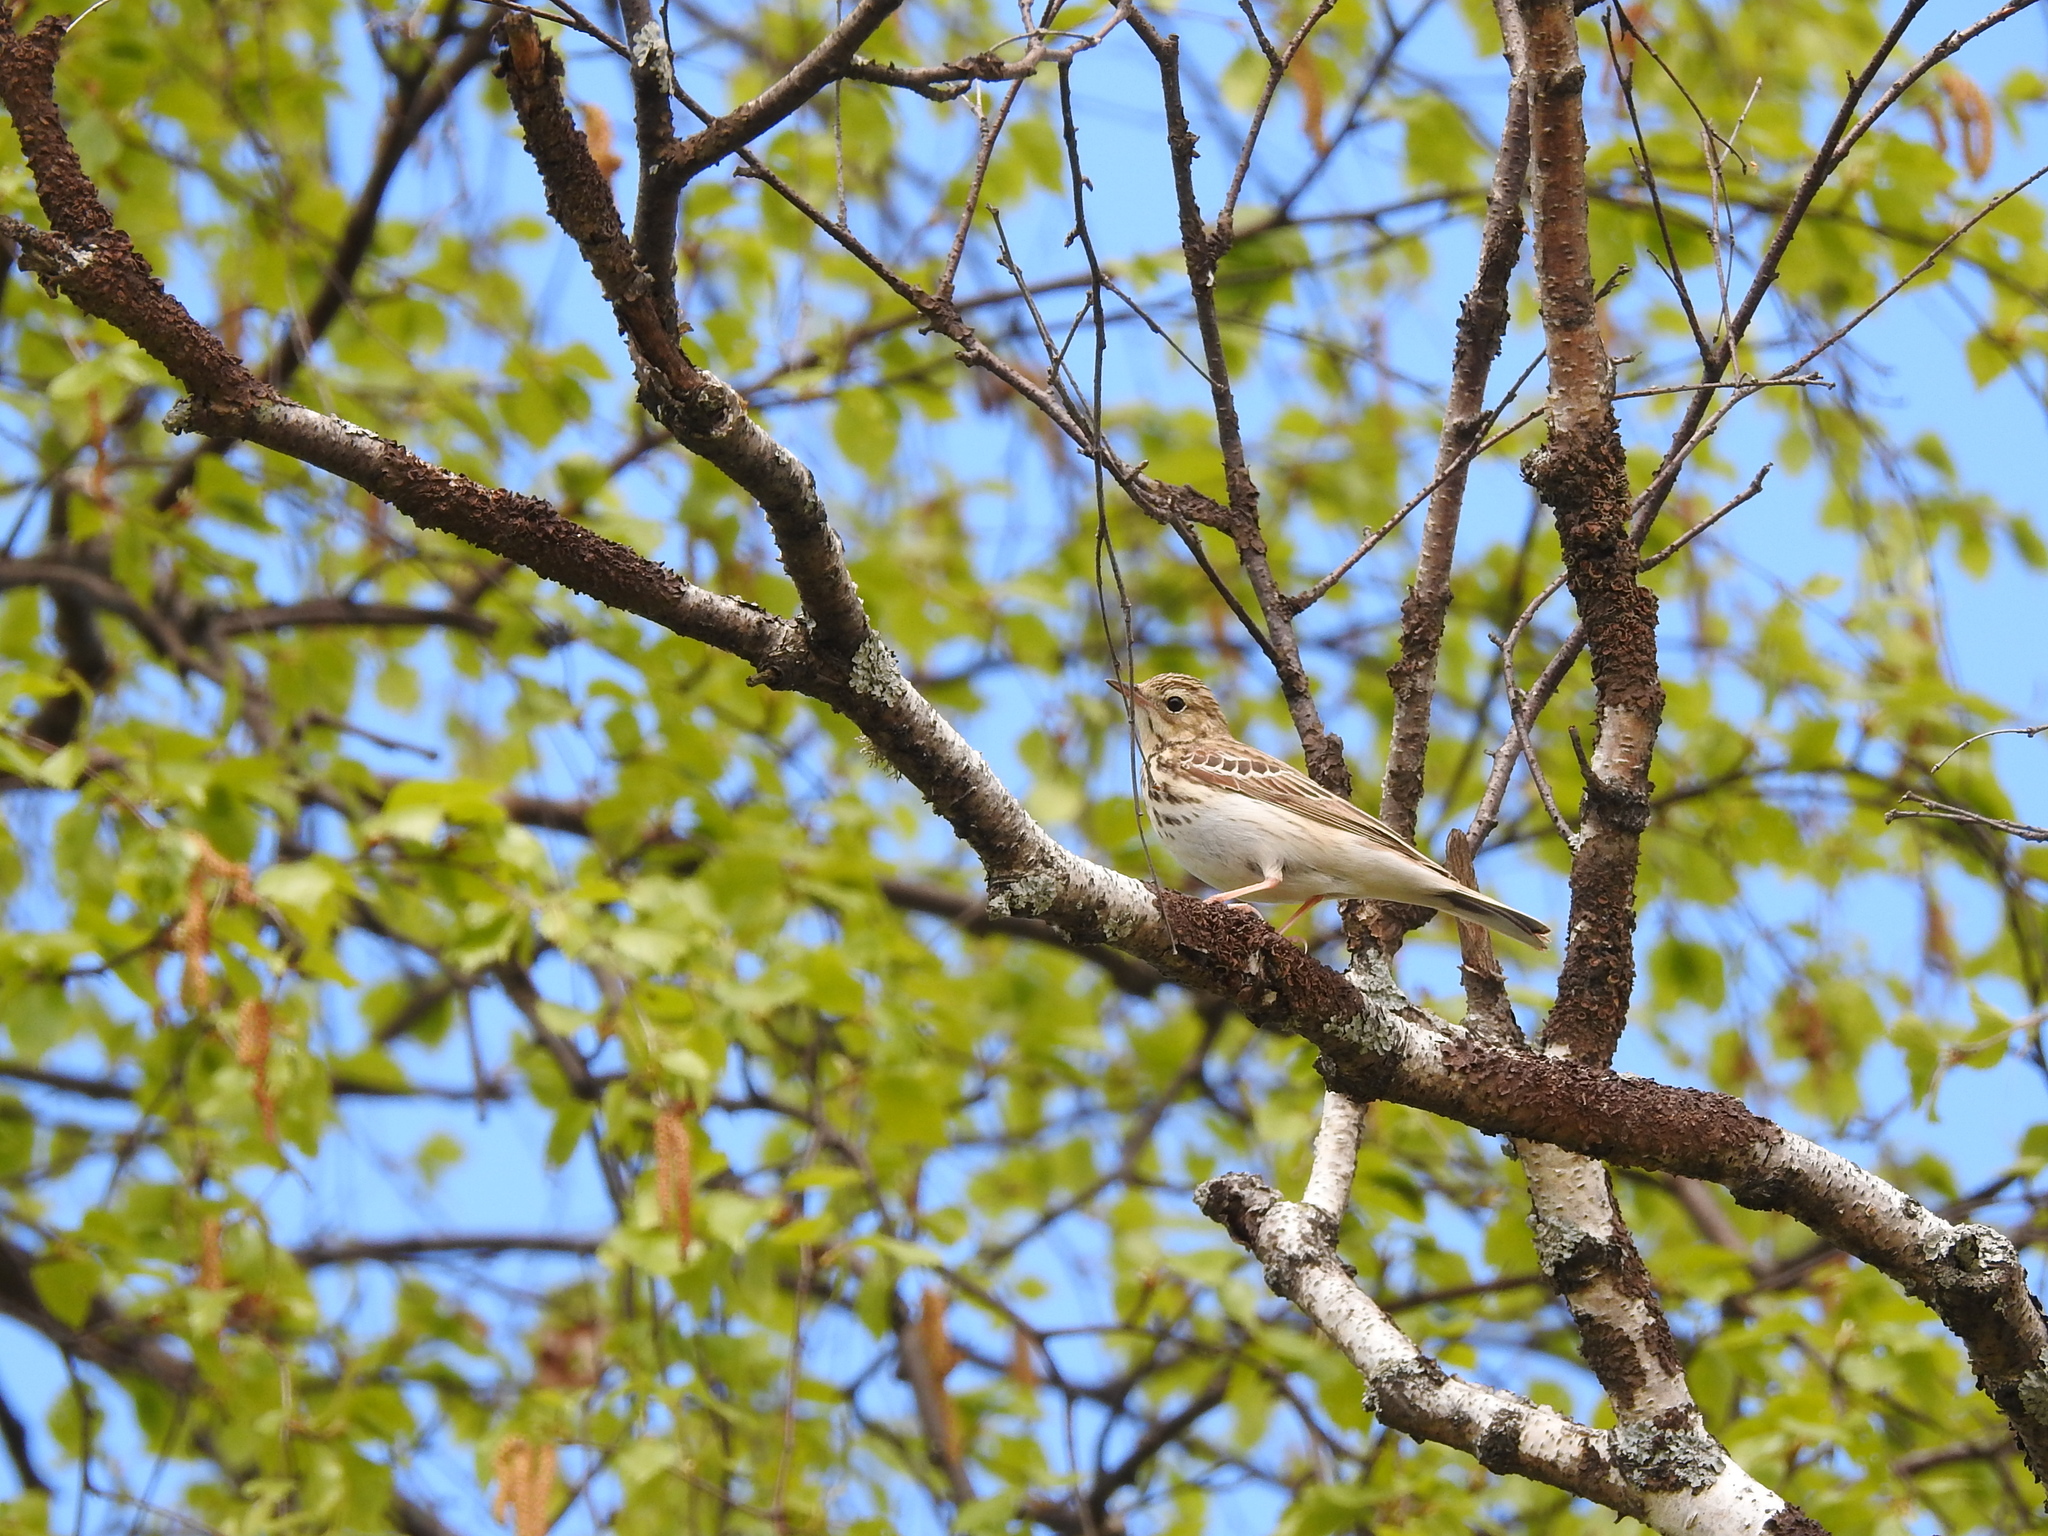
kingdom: Animalia
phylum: Chordata
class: Aves
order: Passeriformes
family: Motacillidae
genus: Anthus
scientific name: Anthus trivialis
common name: Tree pipit
